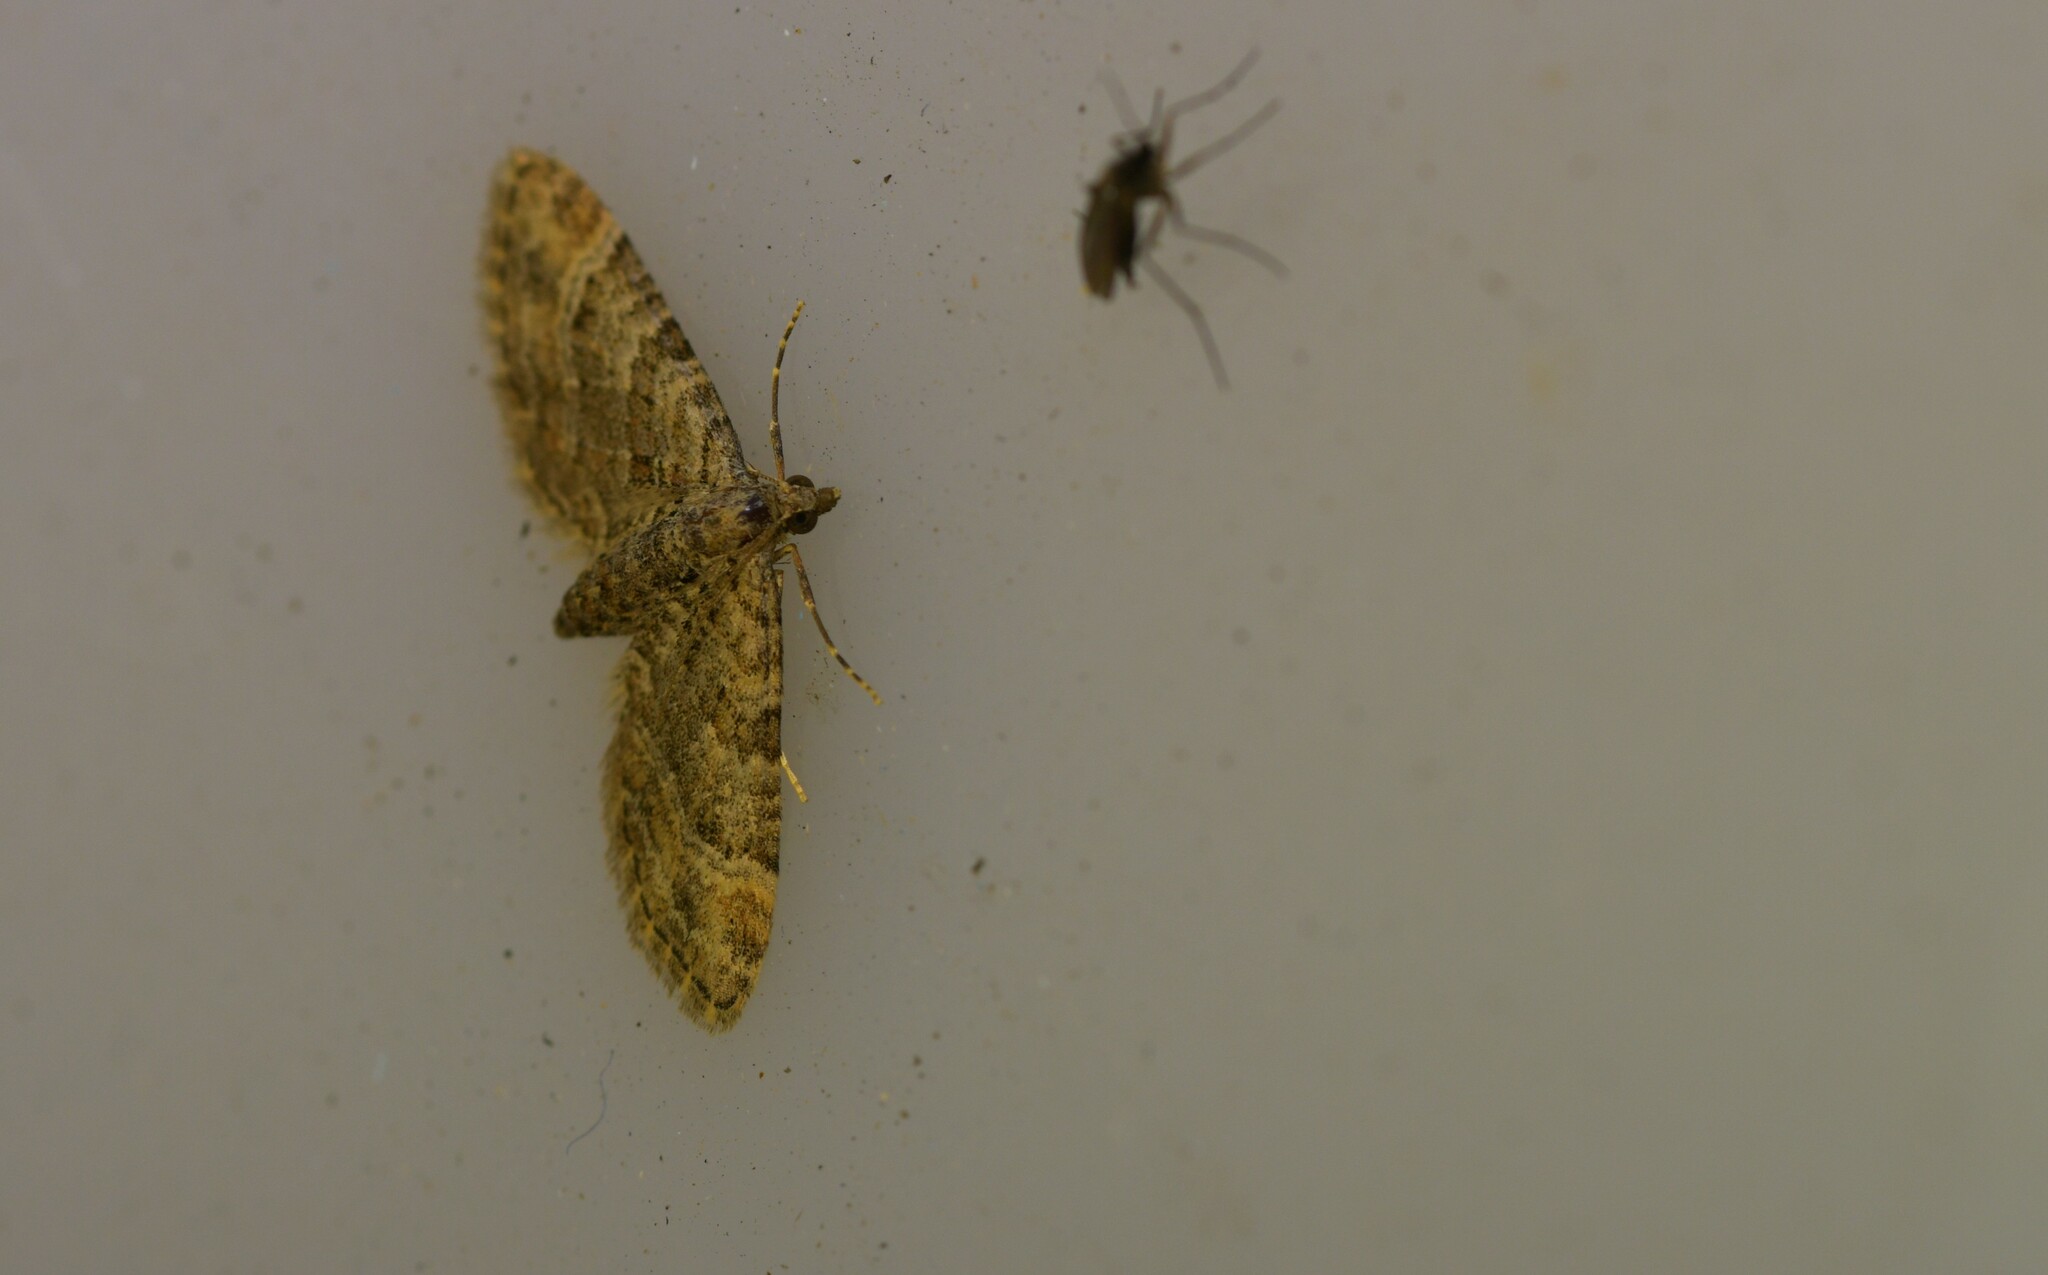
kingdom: Animalia
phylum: Arthropoda
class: Insecta
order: Lepidoptera
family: Geometridae
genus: Gymnoscelis
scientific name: Gymnoscelis rufifasciata
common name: Double-striped pug
